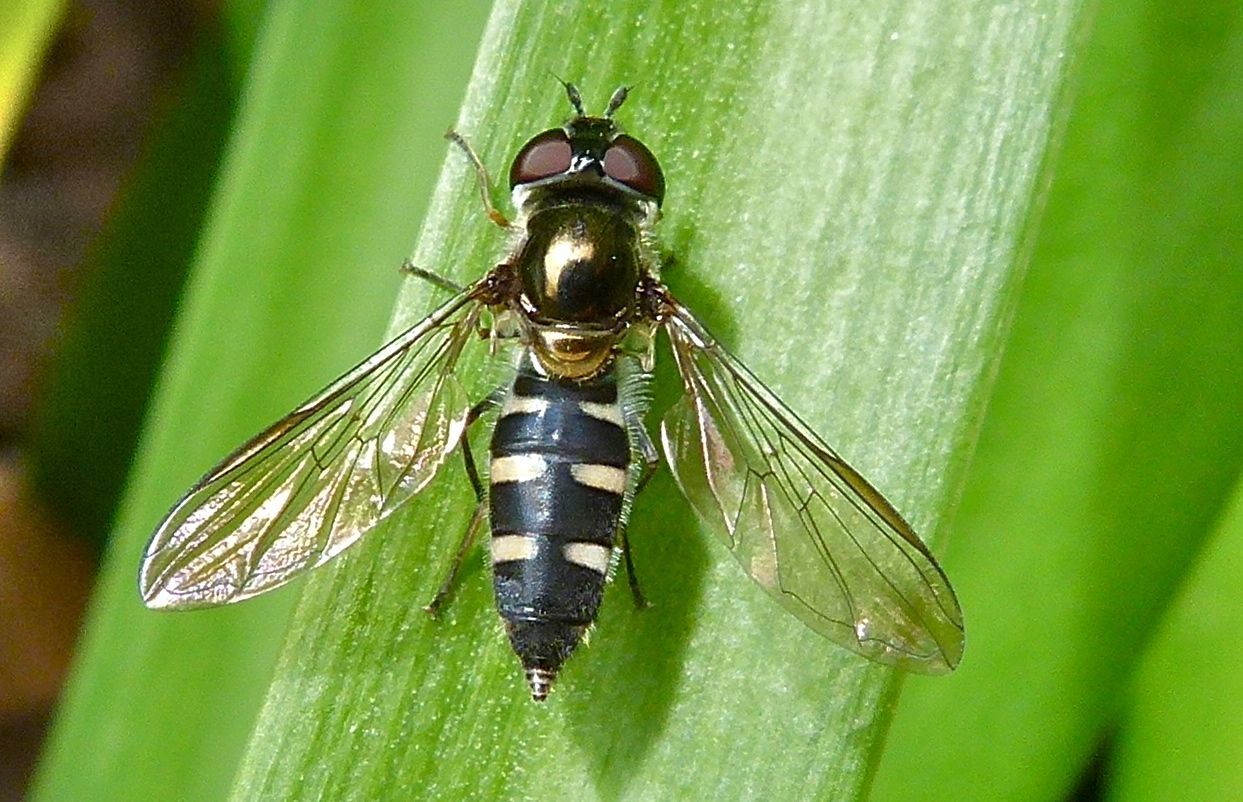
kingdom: Animalia
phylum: Arthropoda
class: Insecta
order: Diptera
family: Syrphidae
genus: Melangyna
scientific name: Melangyna novaezelandiae
